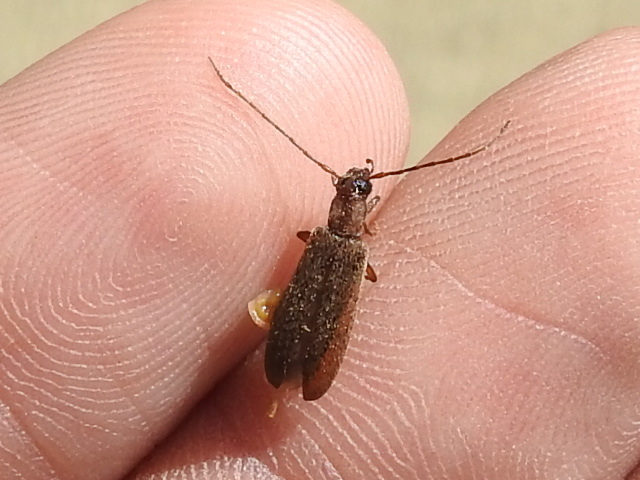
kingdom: Animalia
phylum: Arthropoda
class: Insecta
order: Coleoptera
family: Oedemeridae
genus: Sparedrus
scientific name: Sparedrus aspersus
